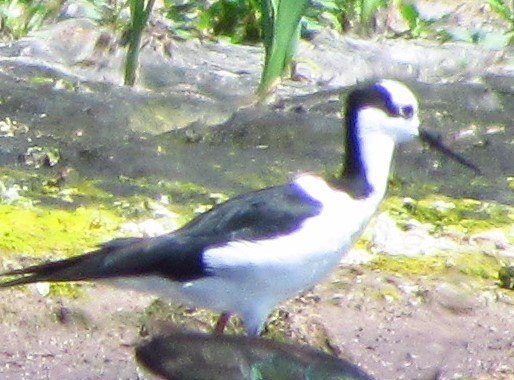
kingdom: Animalia
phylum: Chordata
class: Aves
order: Charadriiformes
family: Recurvirostridae
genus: Himantopus
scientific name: Himantopus mexicanus
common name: Black-necked stilt
